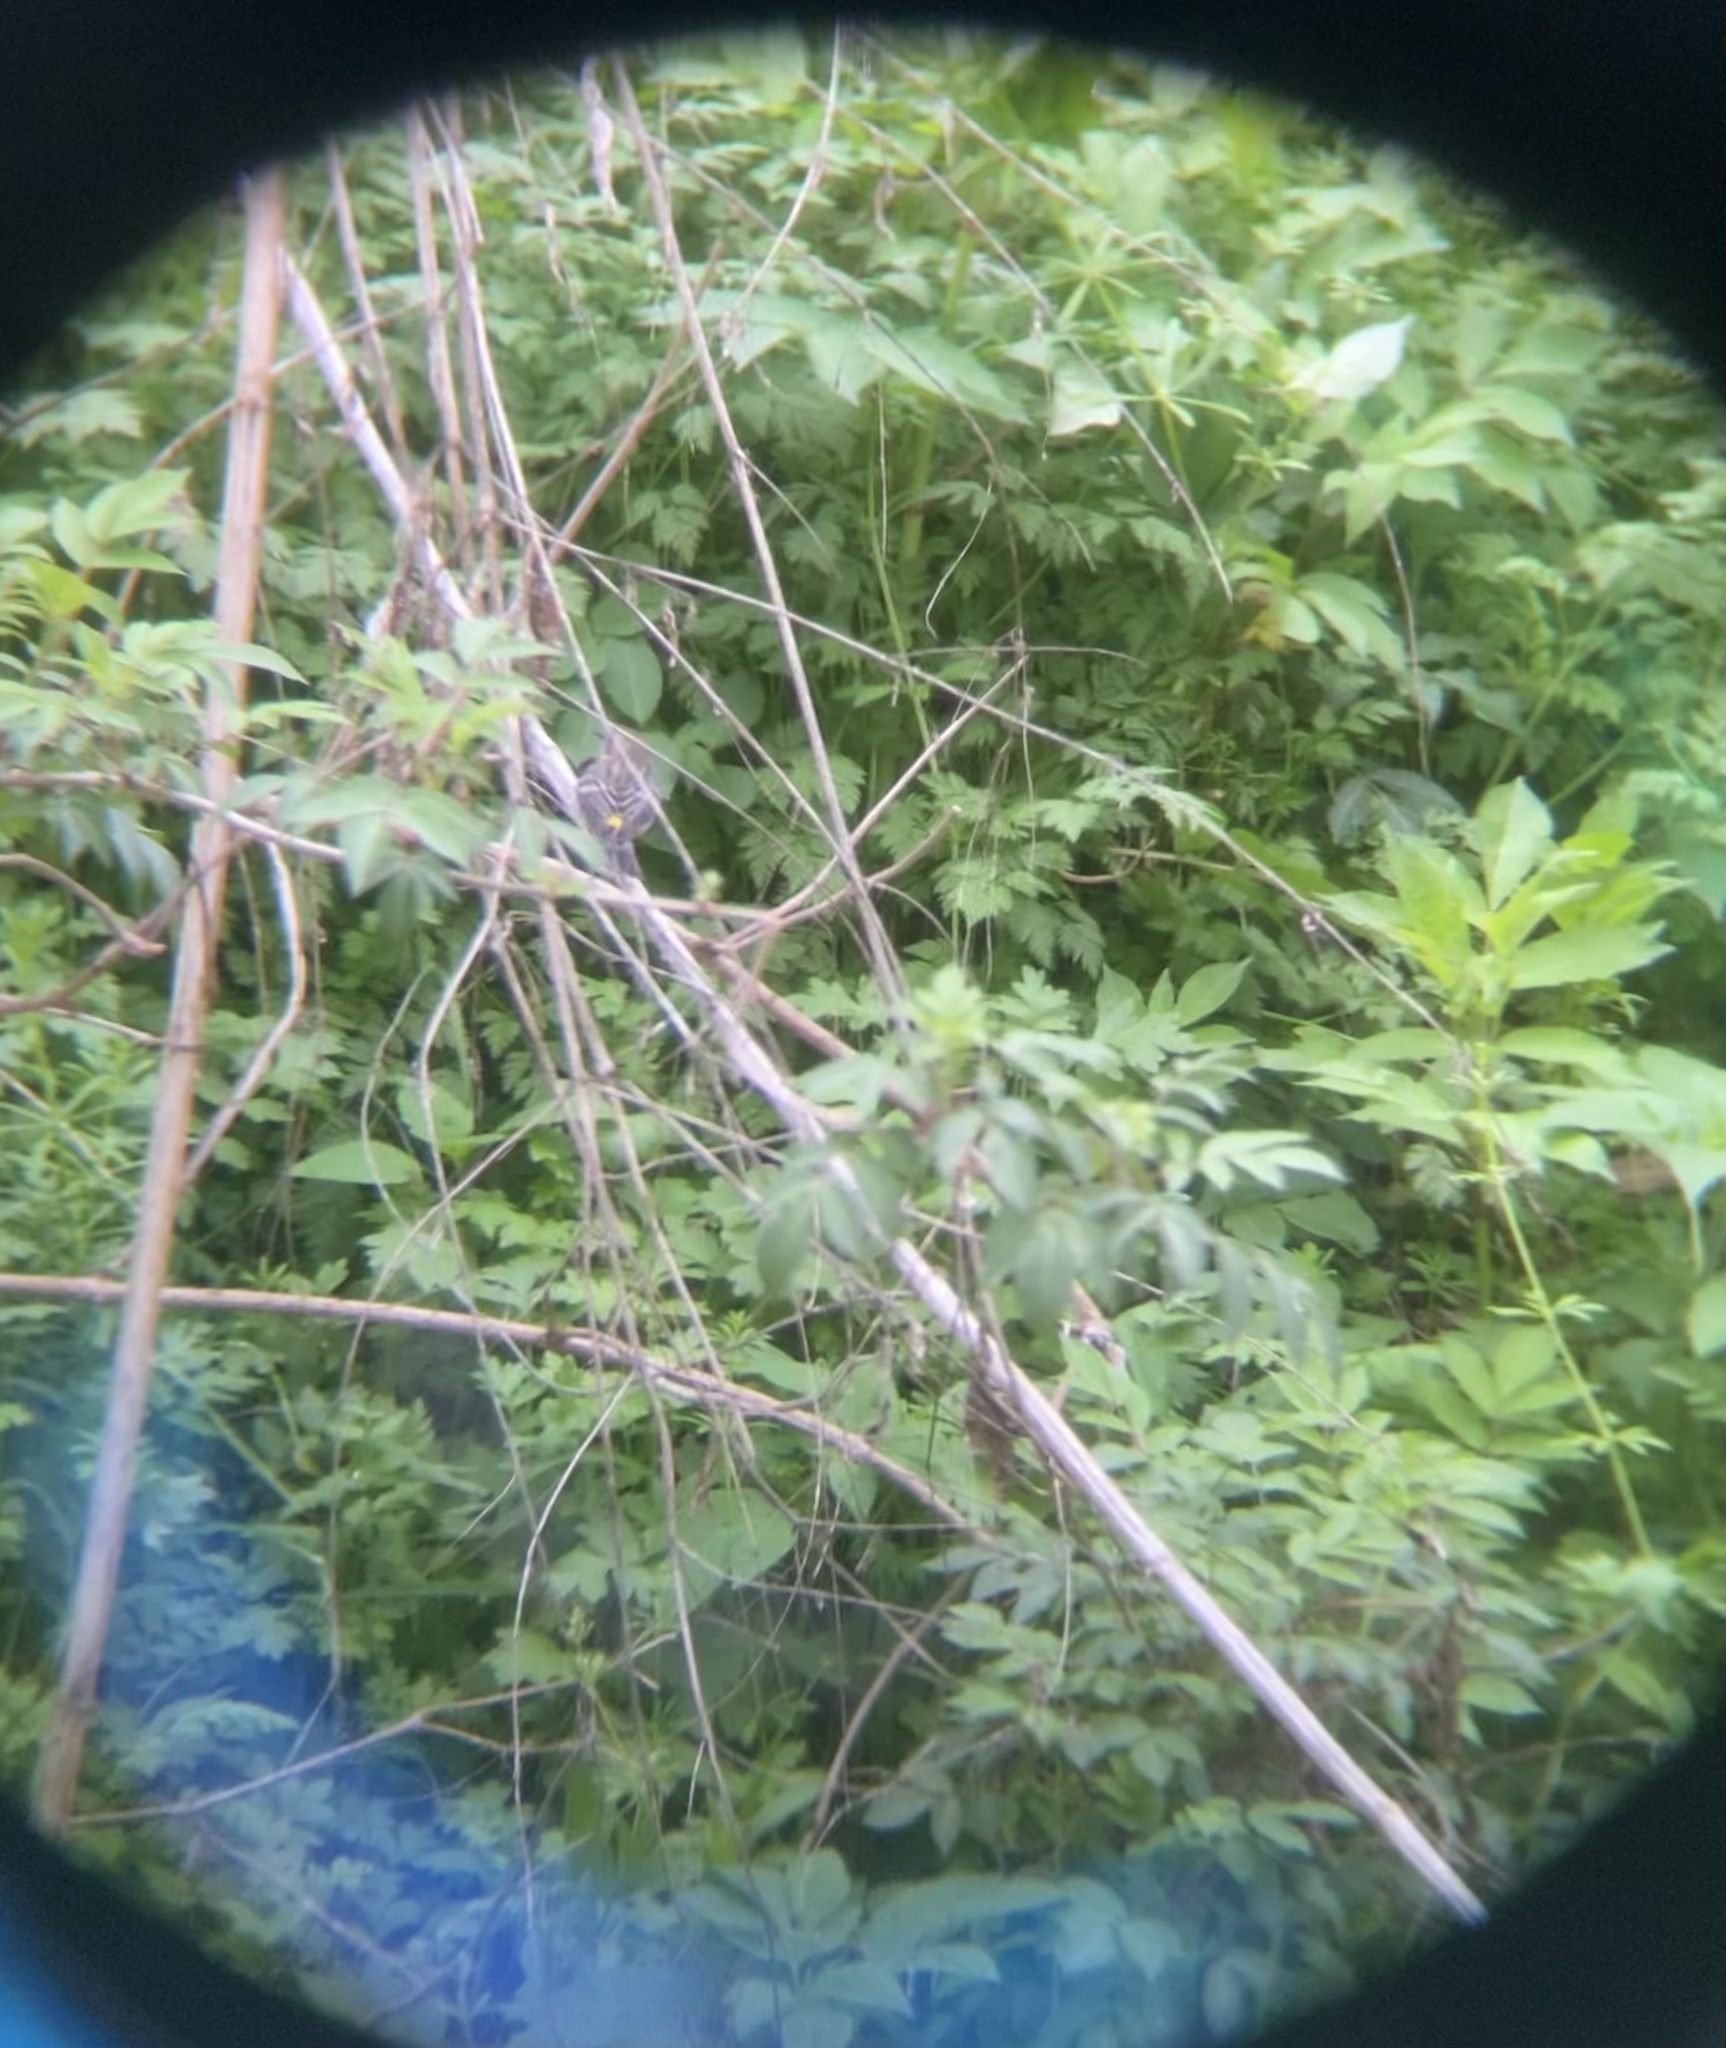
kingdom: Animalia
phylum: Chordata
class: Aves
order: Passeriformes
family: Parulidae
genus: Setophaga
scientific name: Setophaga coronata
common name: Myrtle warbler
